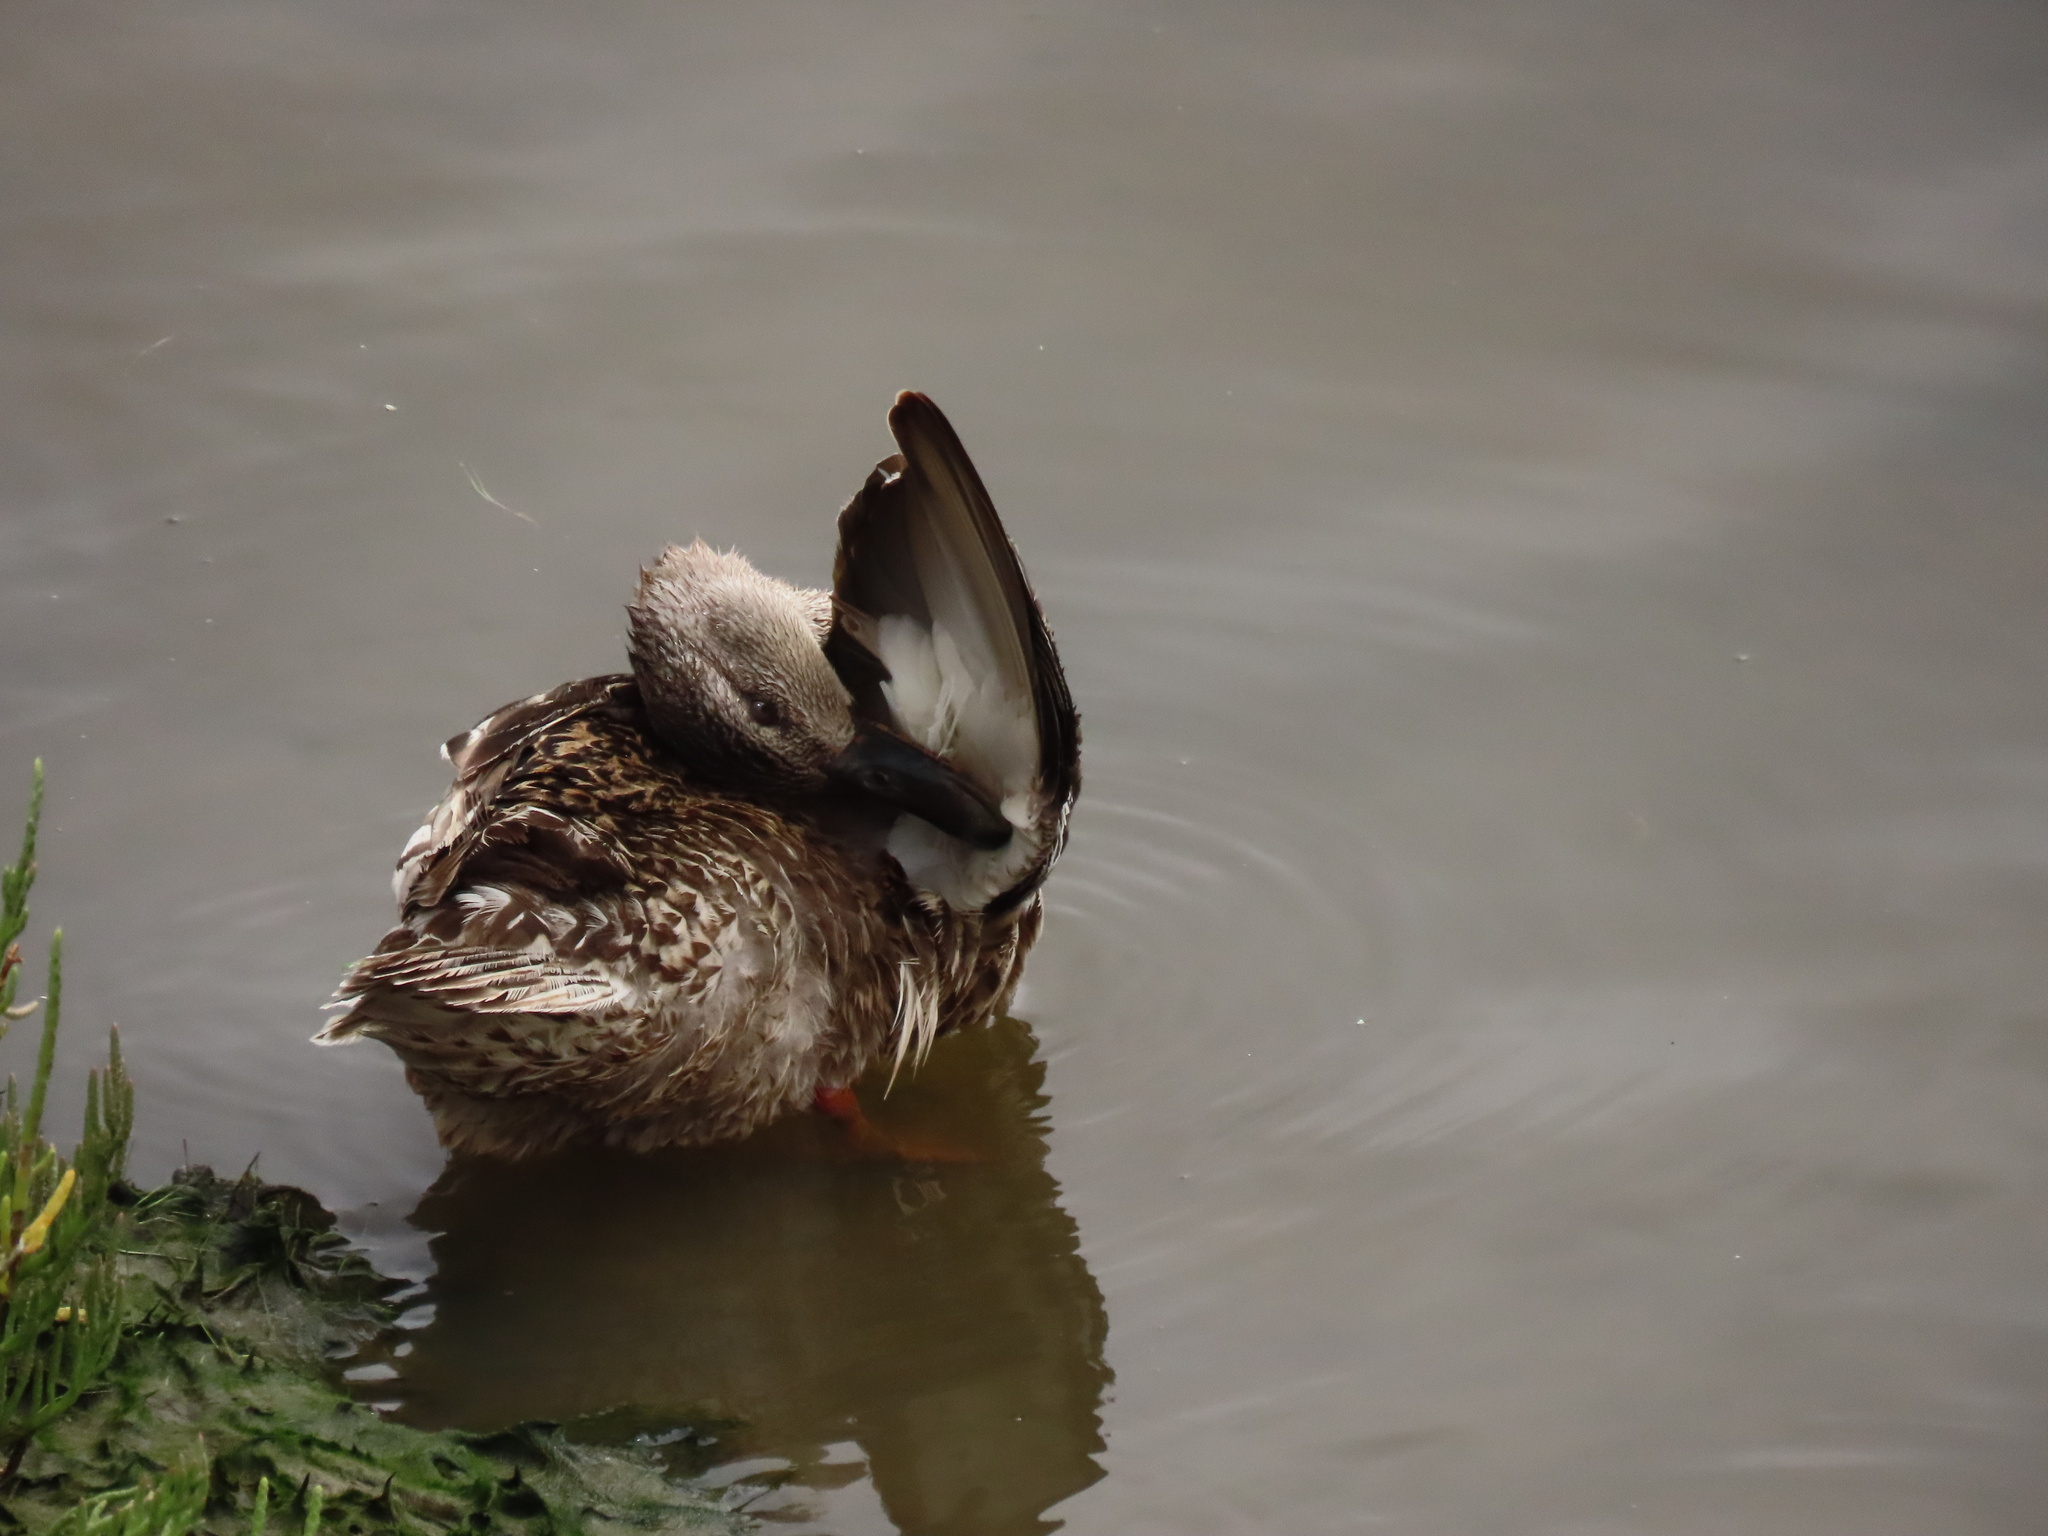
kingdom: Animalia
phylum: Chordata
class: Aves
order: Anseriformes
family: Anatidae
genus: Anas
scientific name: Anas platyrhynchos
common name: Mallard
